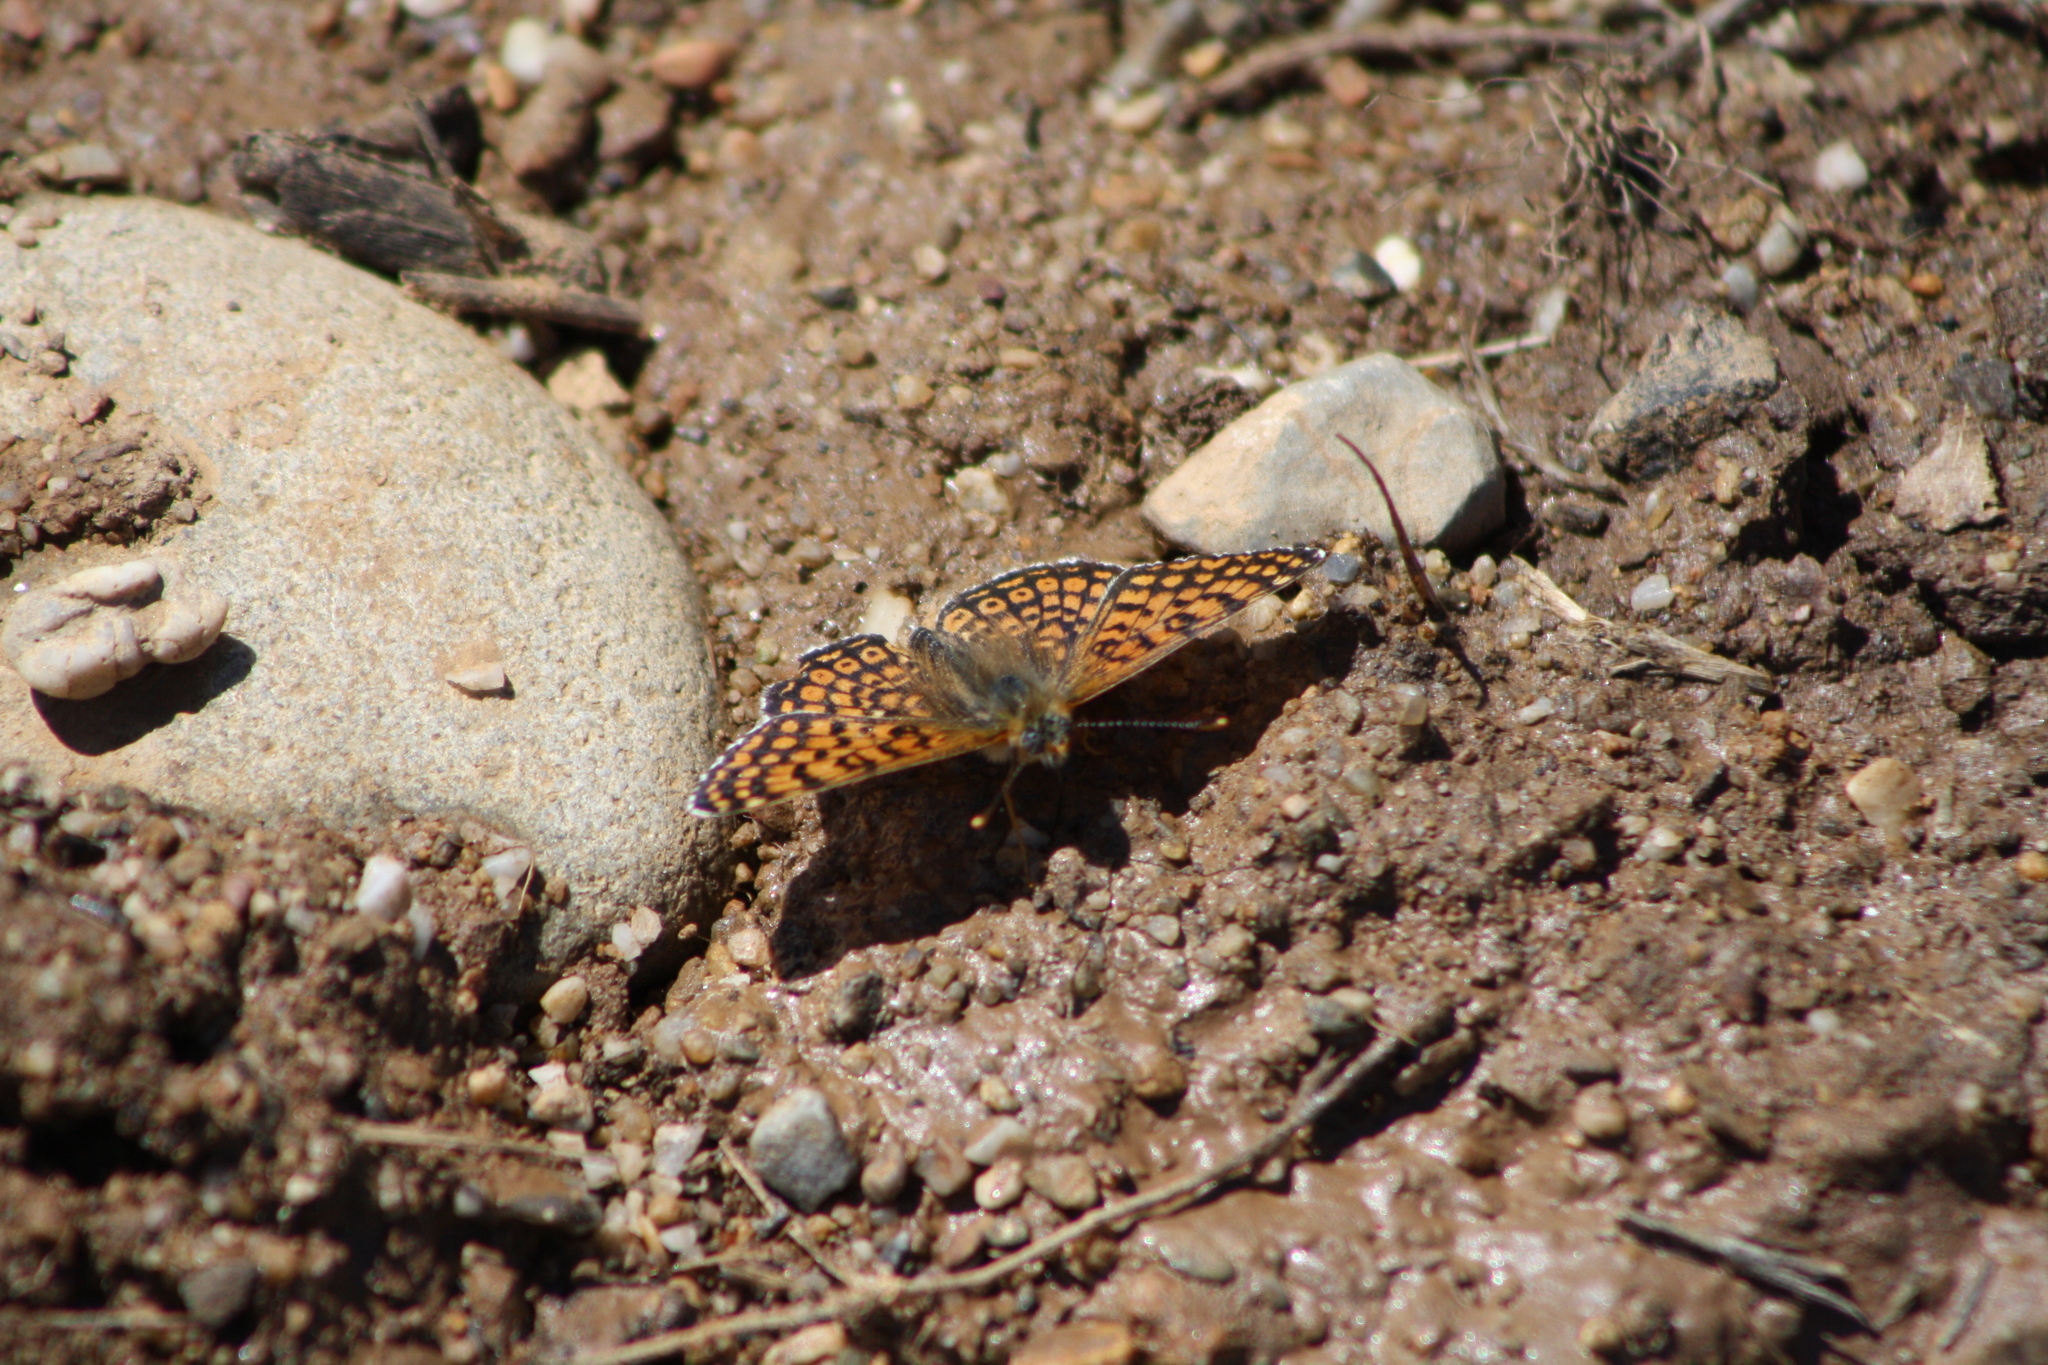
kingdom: Animalia
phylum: Arthropoda
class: Insecta
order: Lepidoptera
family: Nymphalidae
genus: Melitaea
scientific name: Melitaea cinxia
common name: Glanville fritillary
